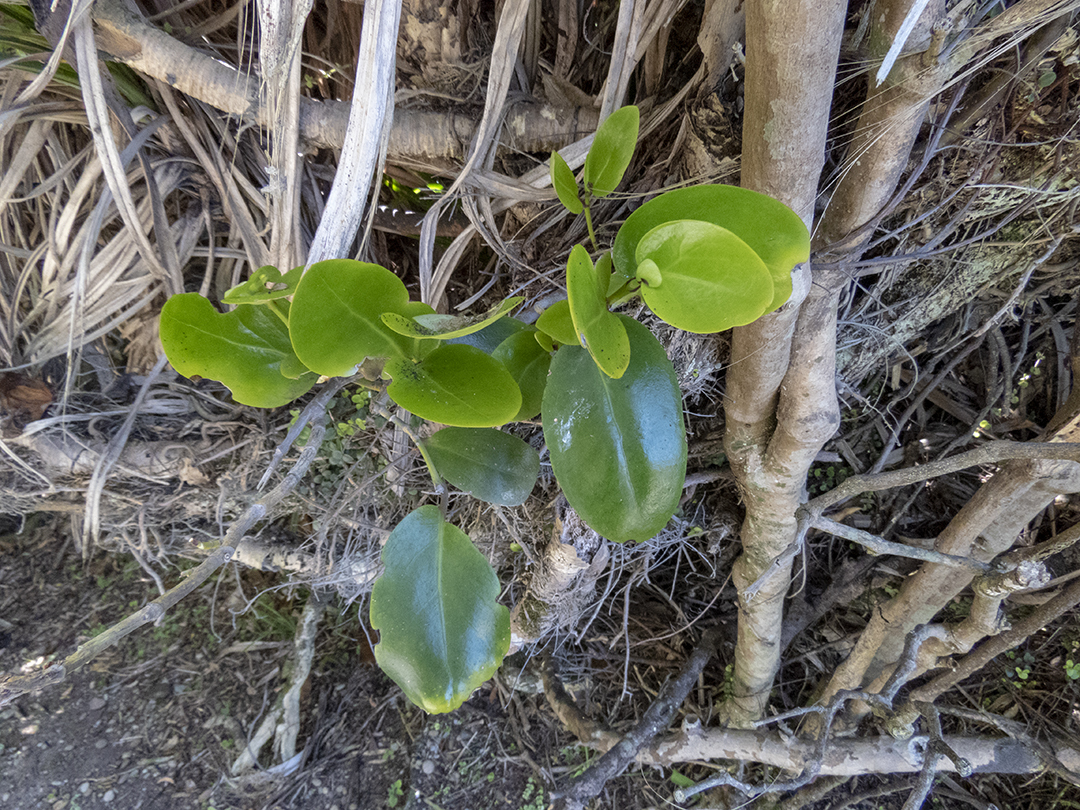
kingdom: Plantae
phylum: Tracheophyta
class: Magnoliopsida
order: Apiales
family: Griseliniaceae
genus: Griselinia
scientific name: Griselinia lucida
